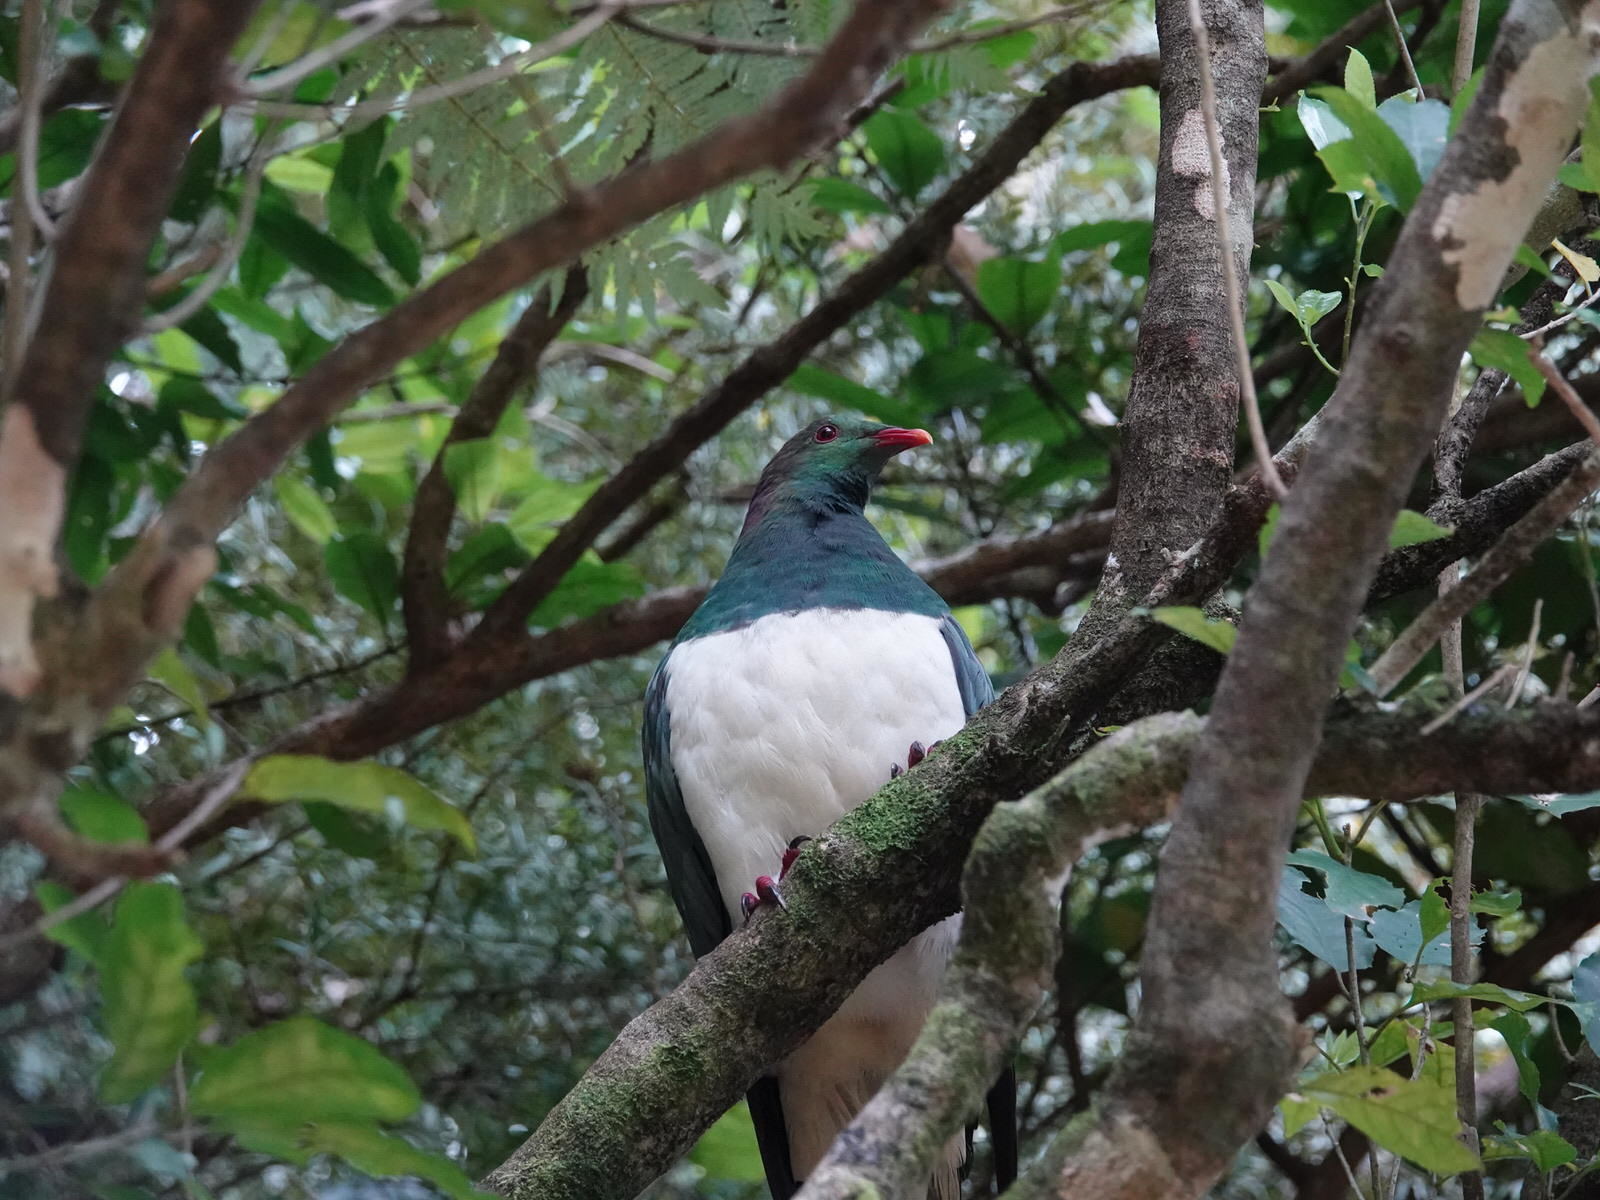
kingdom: Animalia
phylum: Chordata
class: Aves
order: Columbiformes
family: Columbidae
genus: Hemiphaga
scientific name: Hemiphaga novaeseelandiae
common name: New zealand pigeon
